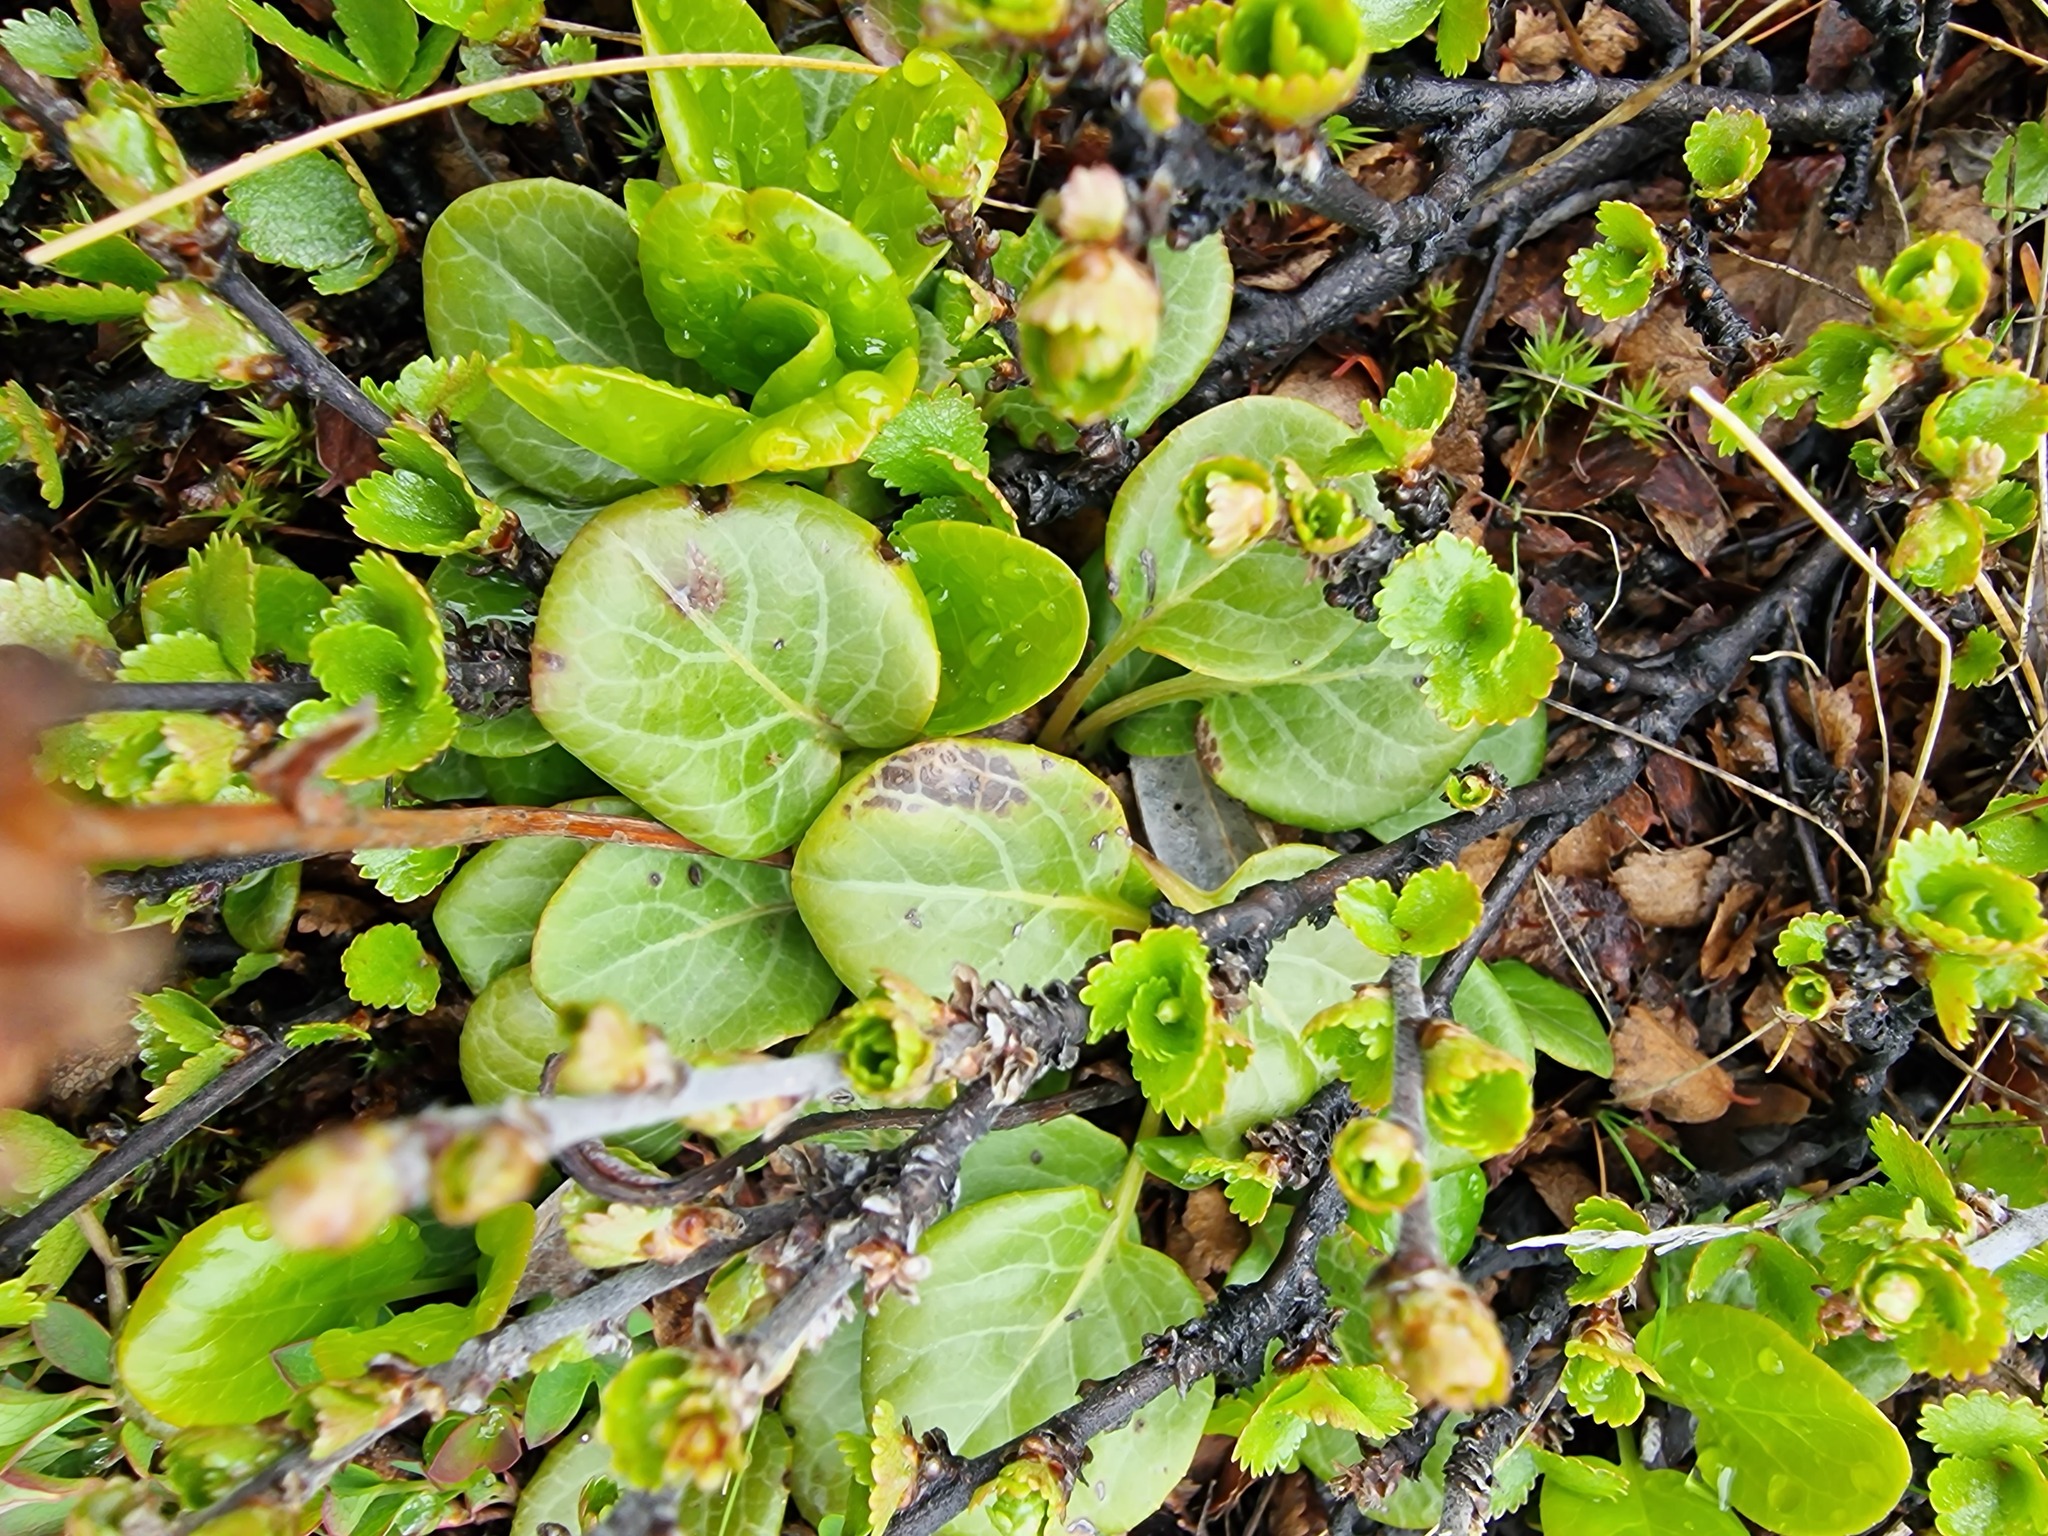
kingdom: Plantae
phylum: Tracheophyta
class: Magnoliopsida
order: Ericales
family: Ericaceae
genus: Pyrola
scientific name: Pyrola grandiflora
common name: Arctic pyrola
